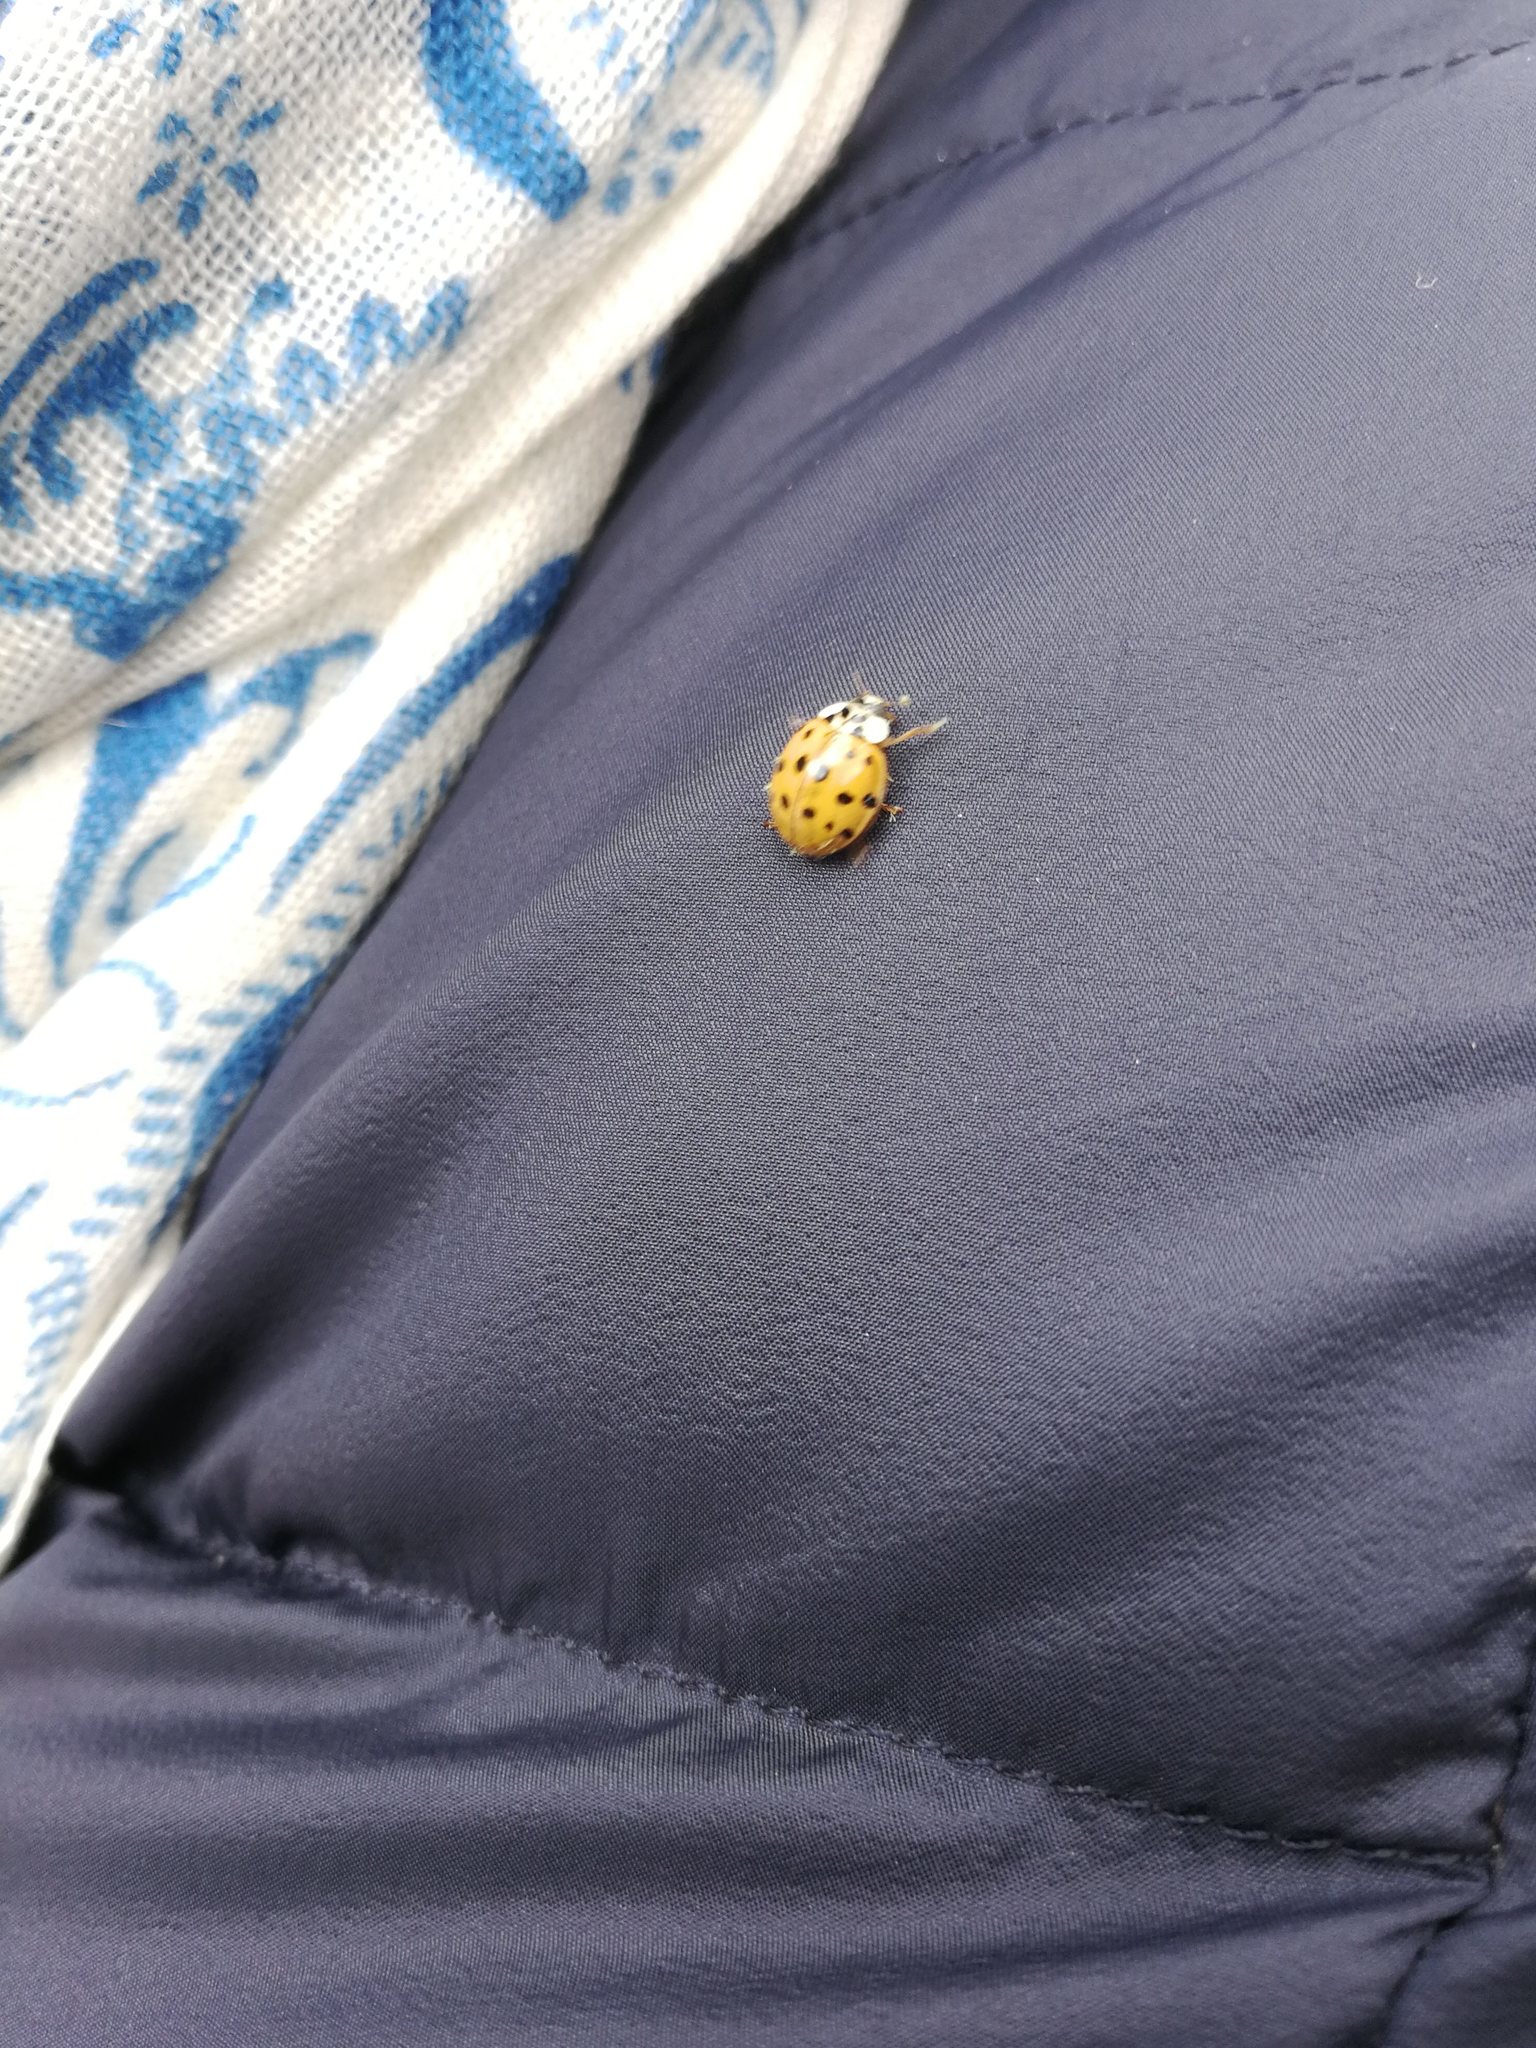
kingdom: Animalia
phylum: Arthropoda
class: Insecta
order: Coleoptera
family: Coccinellidae
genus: Harmonia
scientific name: Harmonia axyridis
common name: Harlequin ladybird
